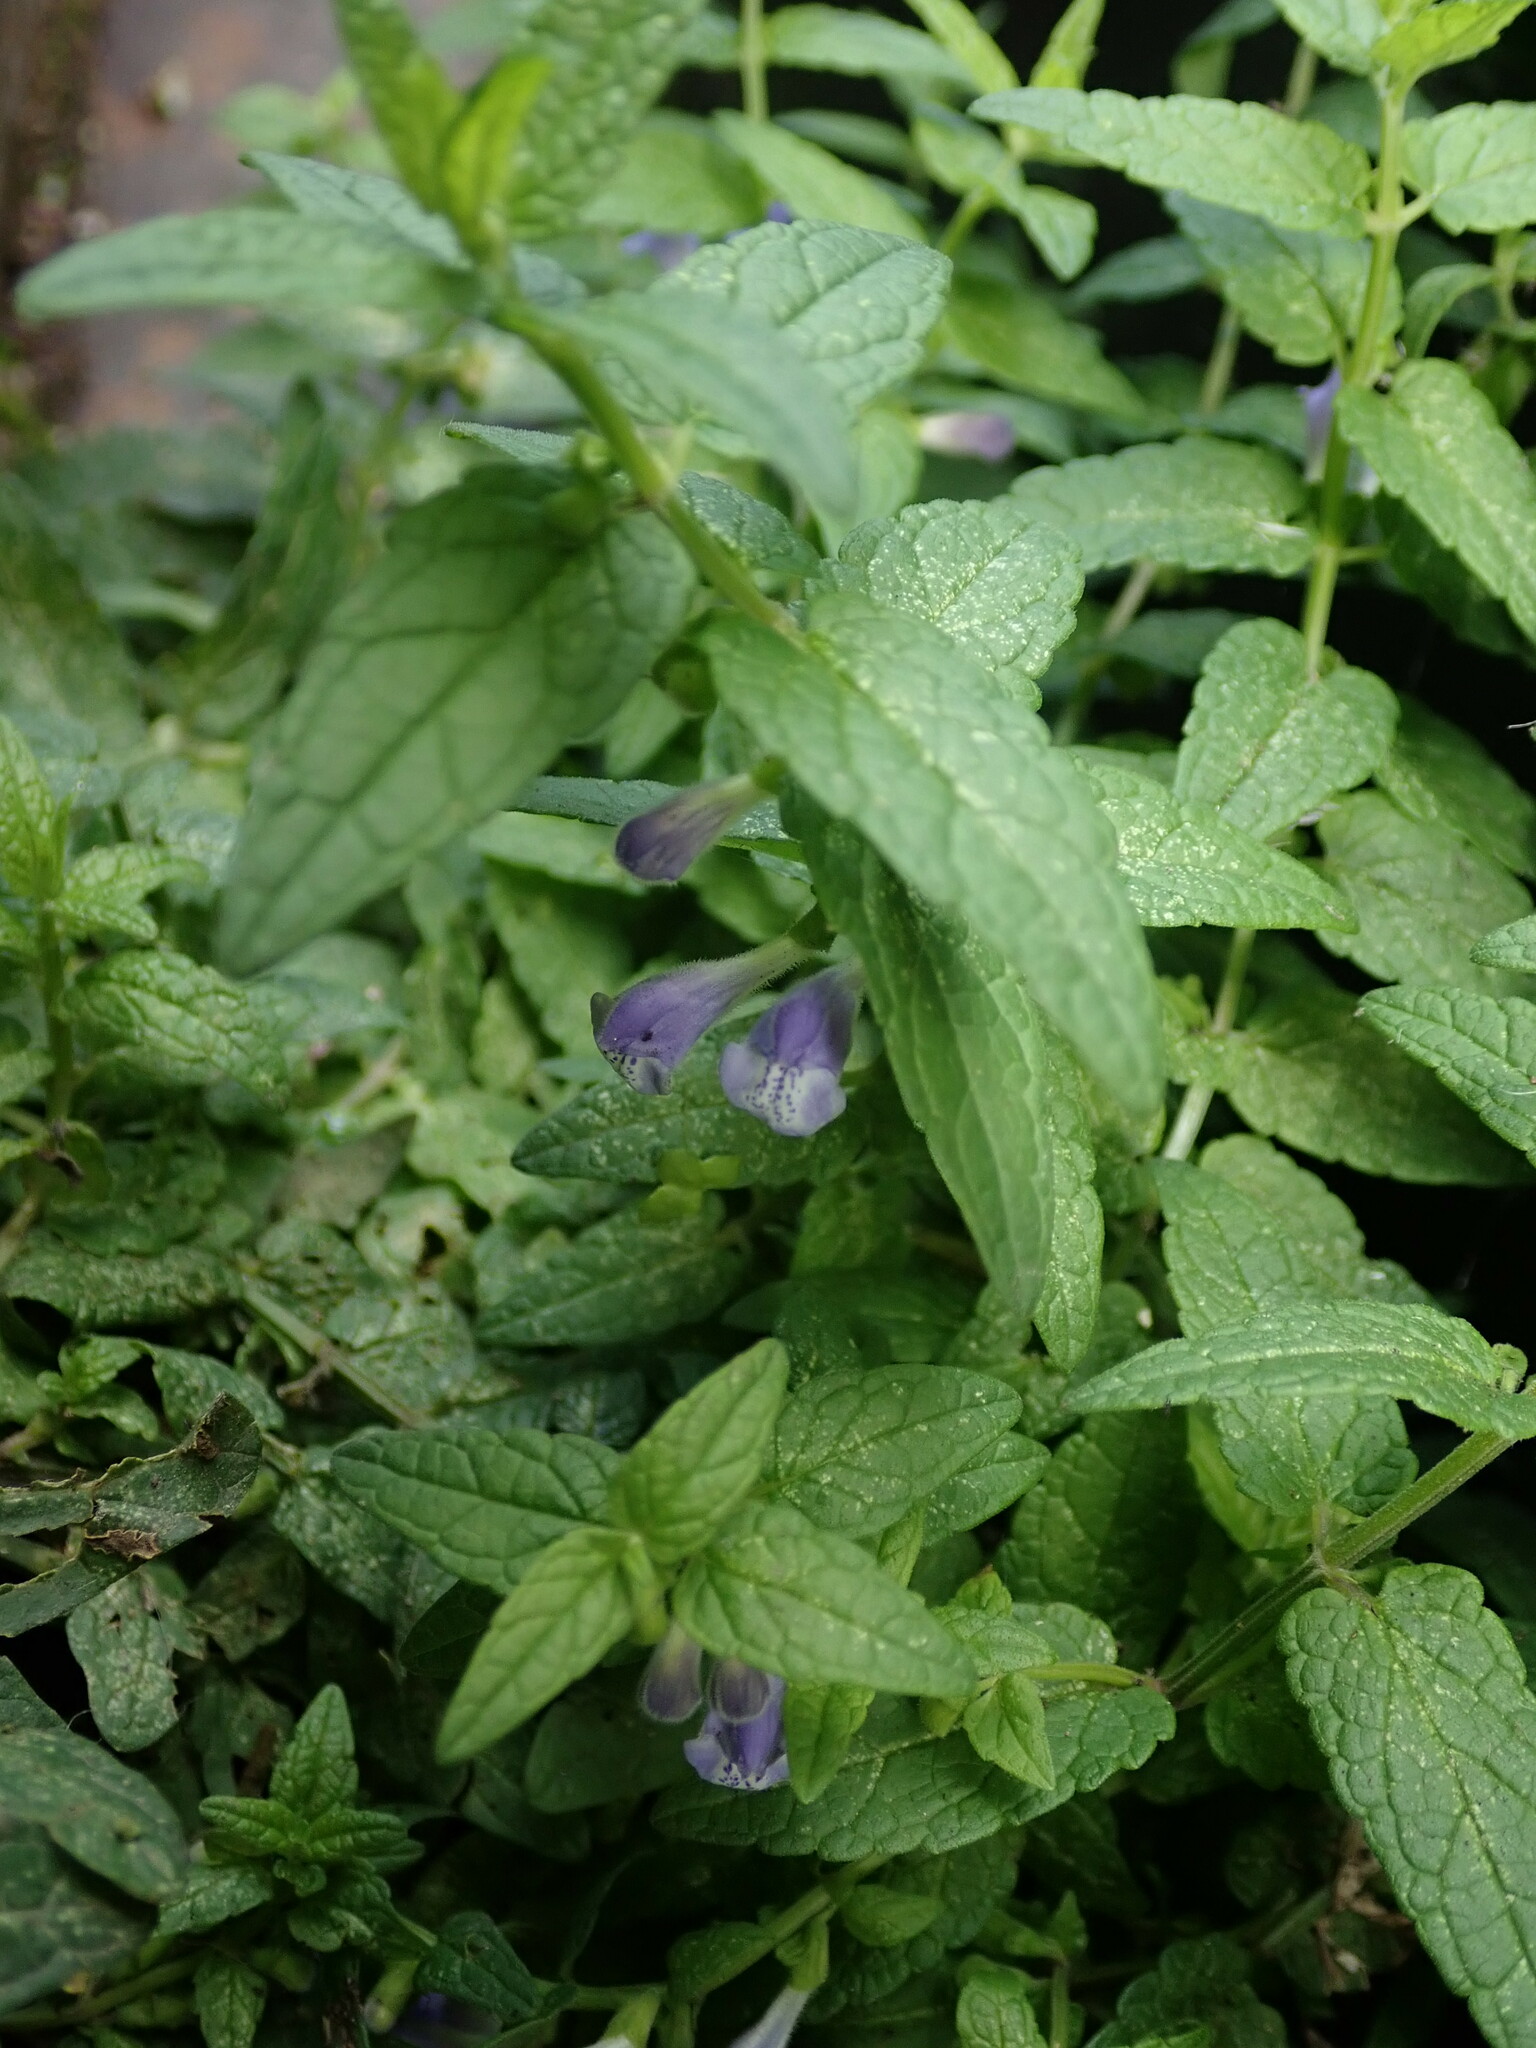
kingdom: Plantae
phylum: Tracheophyta
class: Magnoliopsida
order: Lamiales
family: Lamiaceae
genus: Scutellaria
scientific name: Scutellaria galericulata
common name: Skullcap
